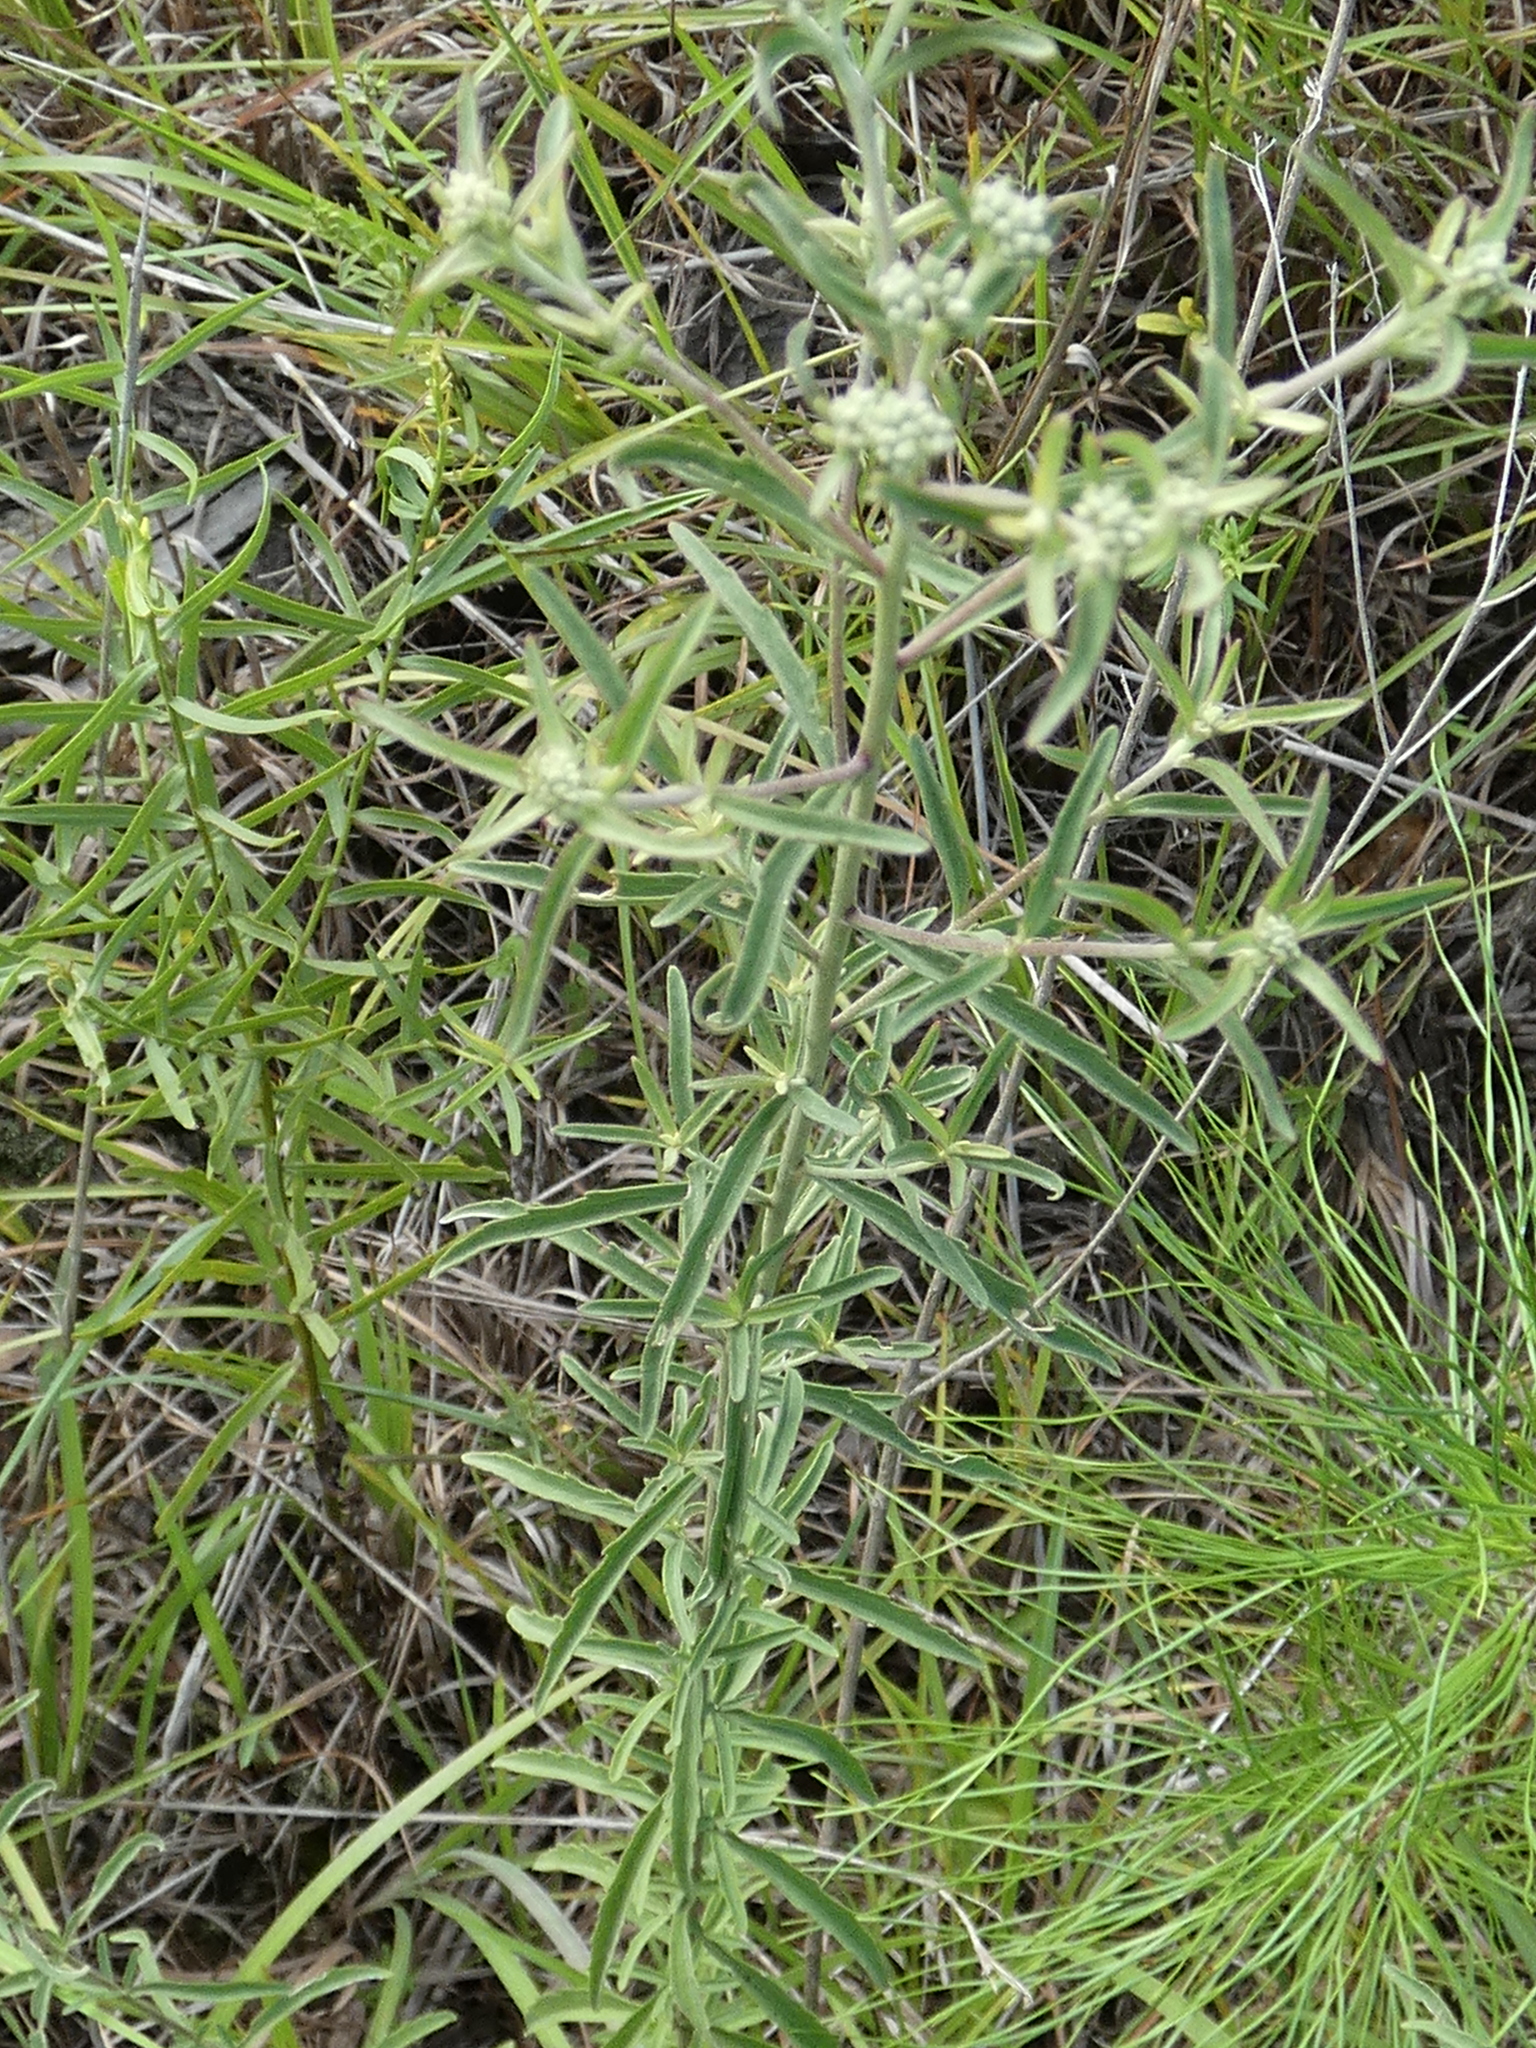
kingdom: Plantae
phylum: Tracheophyta
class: Magnoliopsida
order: Asterales
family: Asteraceae
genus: Eupatorium
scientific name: Eupatorium mohrii
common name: Mohr's thoroughwort
